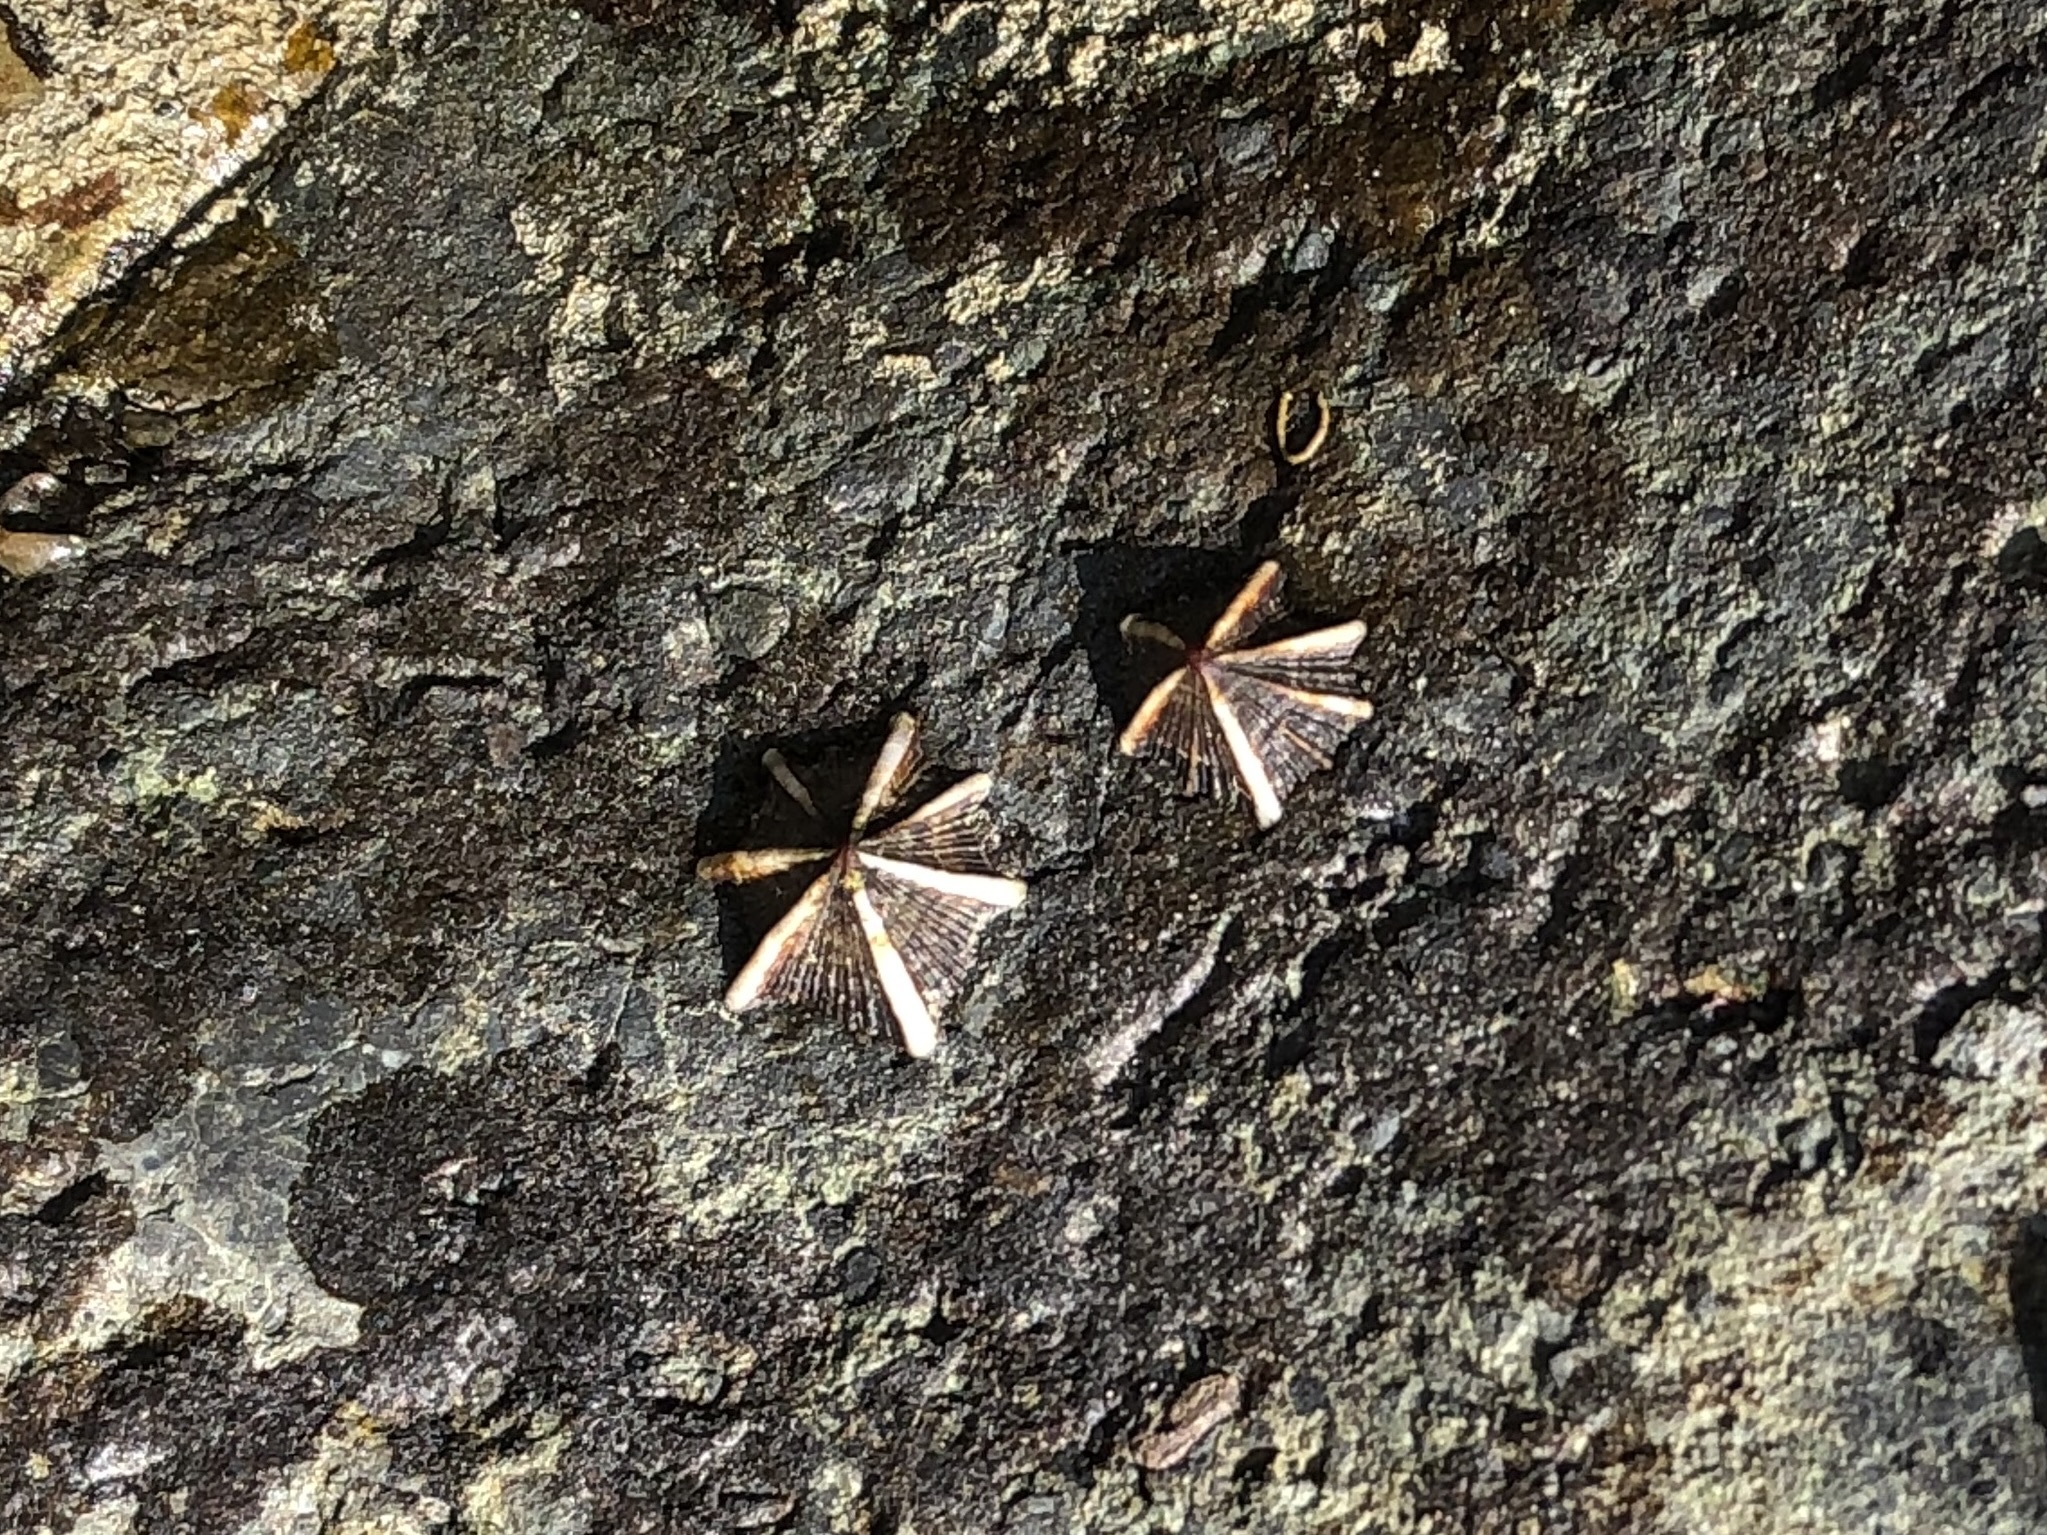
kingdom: Animalia
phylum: Mollusca
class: Gastropoda
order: Siphonariida
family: Siphonariidae
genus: Siphonaria
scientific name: Siphonaria sirius
